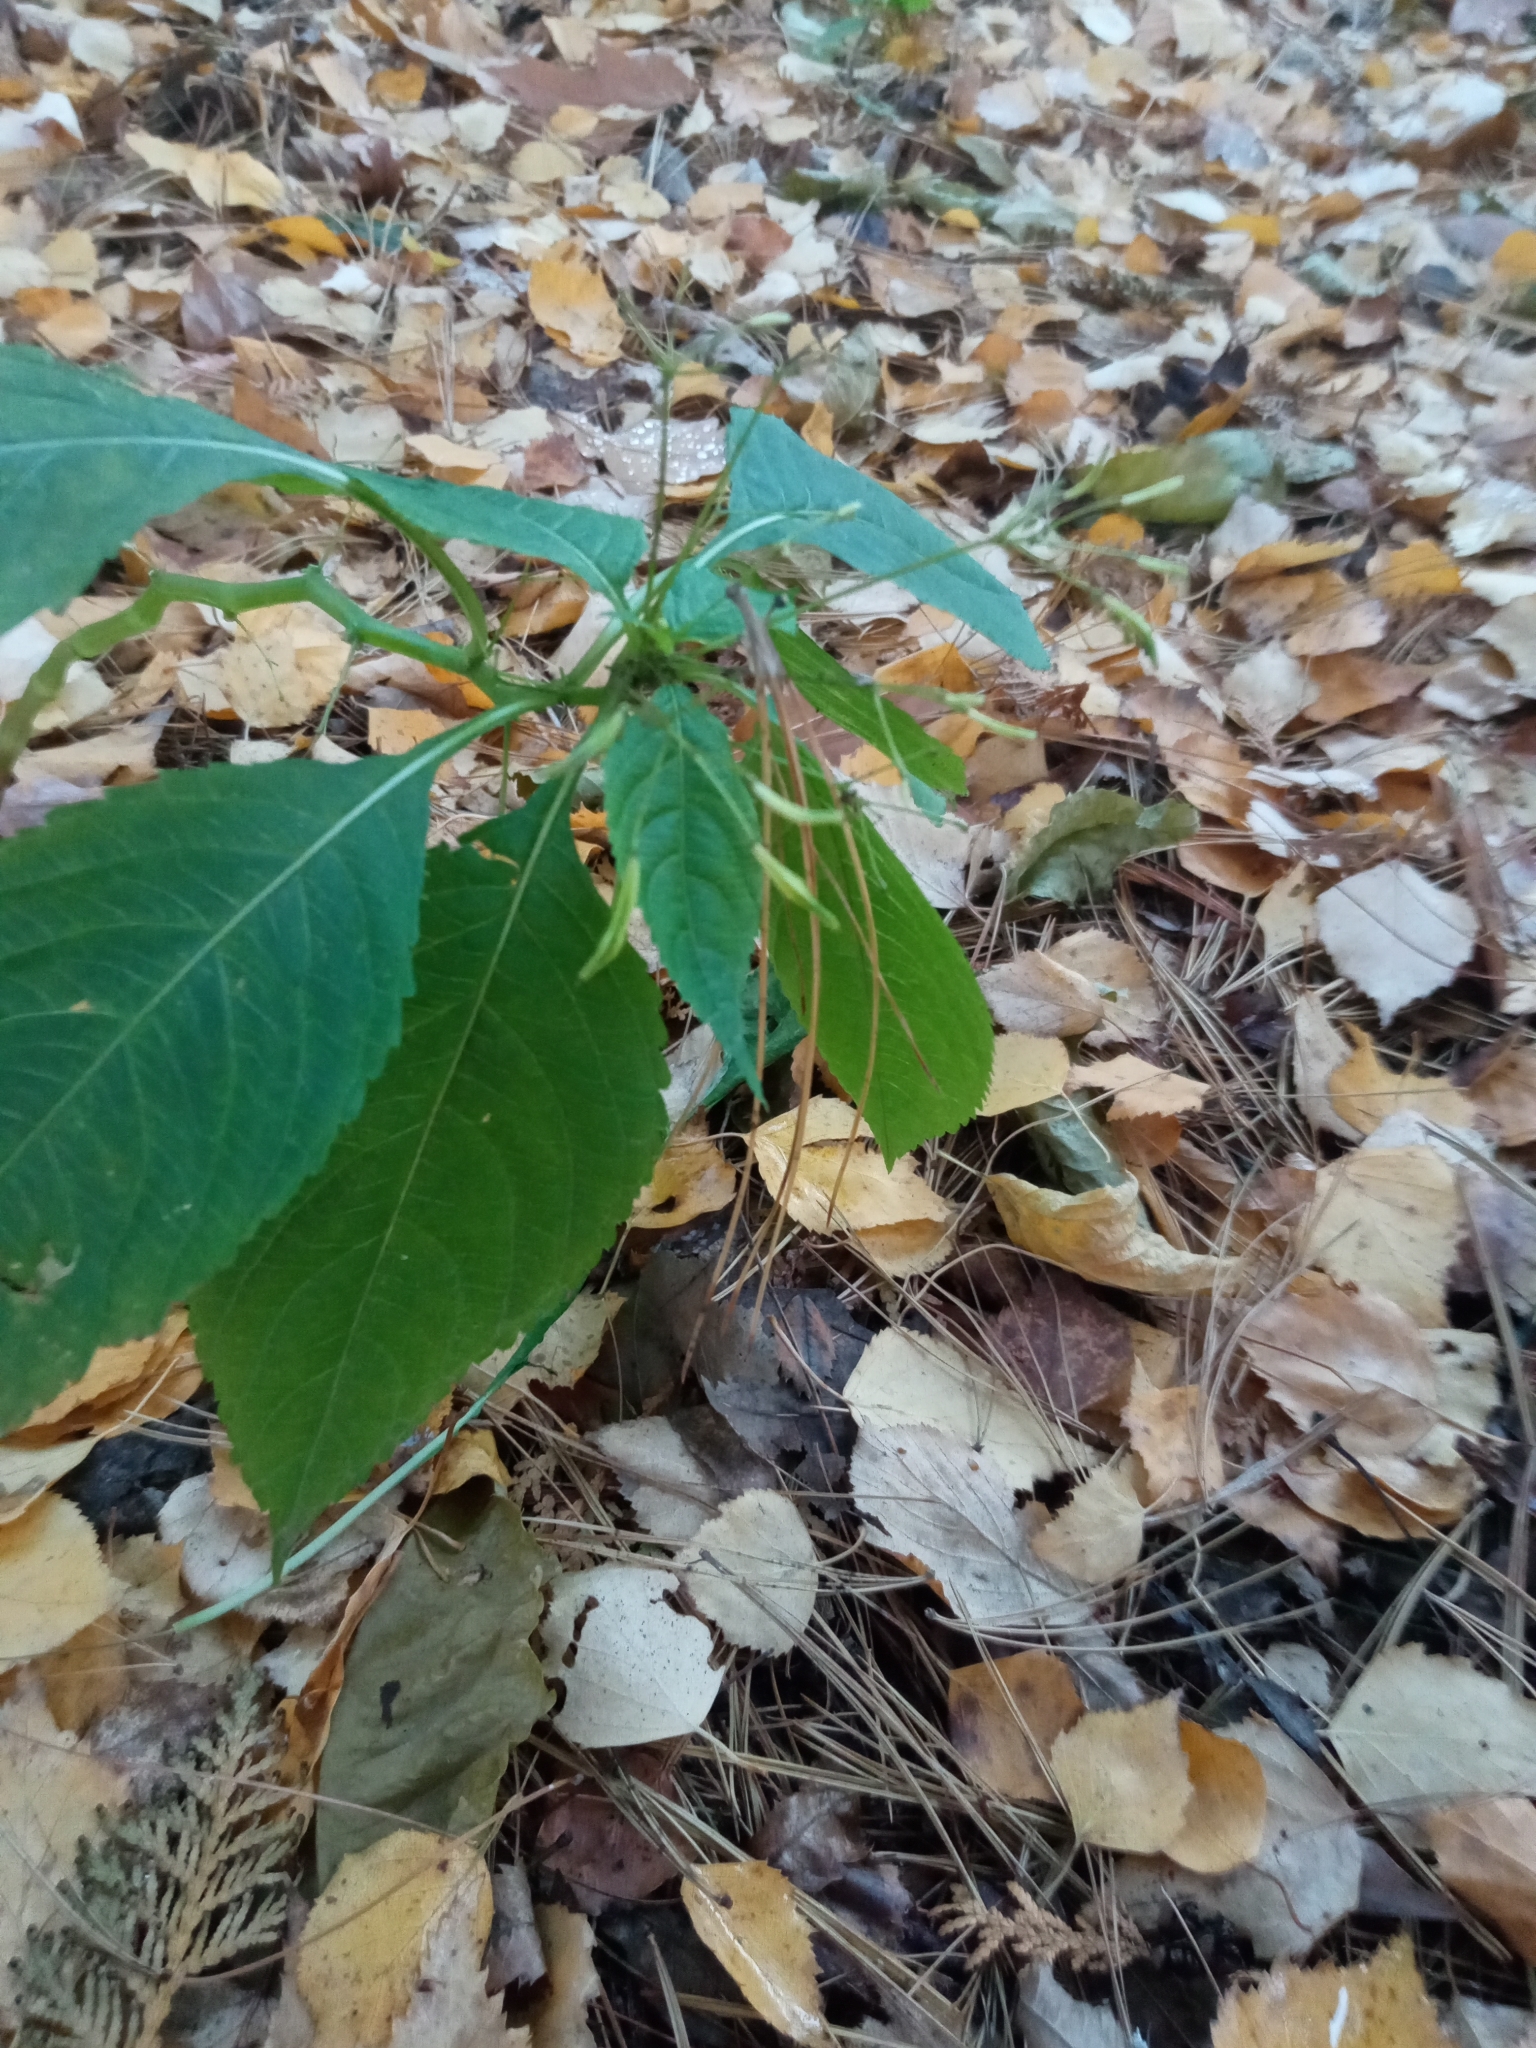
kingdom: Plantae
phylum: Tracheophyta
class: Magnoliopsida
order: Ericales
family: Balsaminaceae
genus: Impatiens
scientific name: Impatiens parviflora
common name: Small balsam
